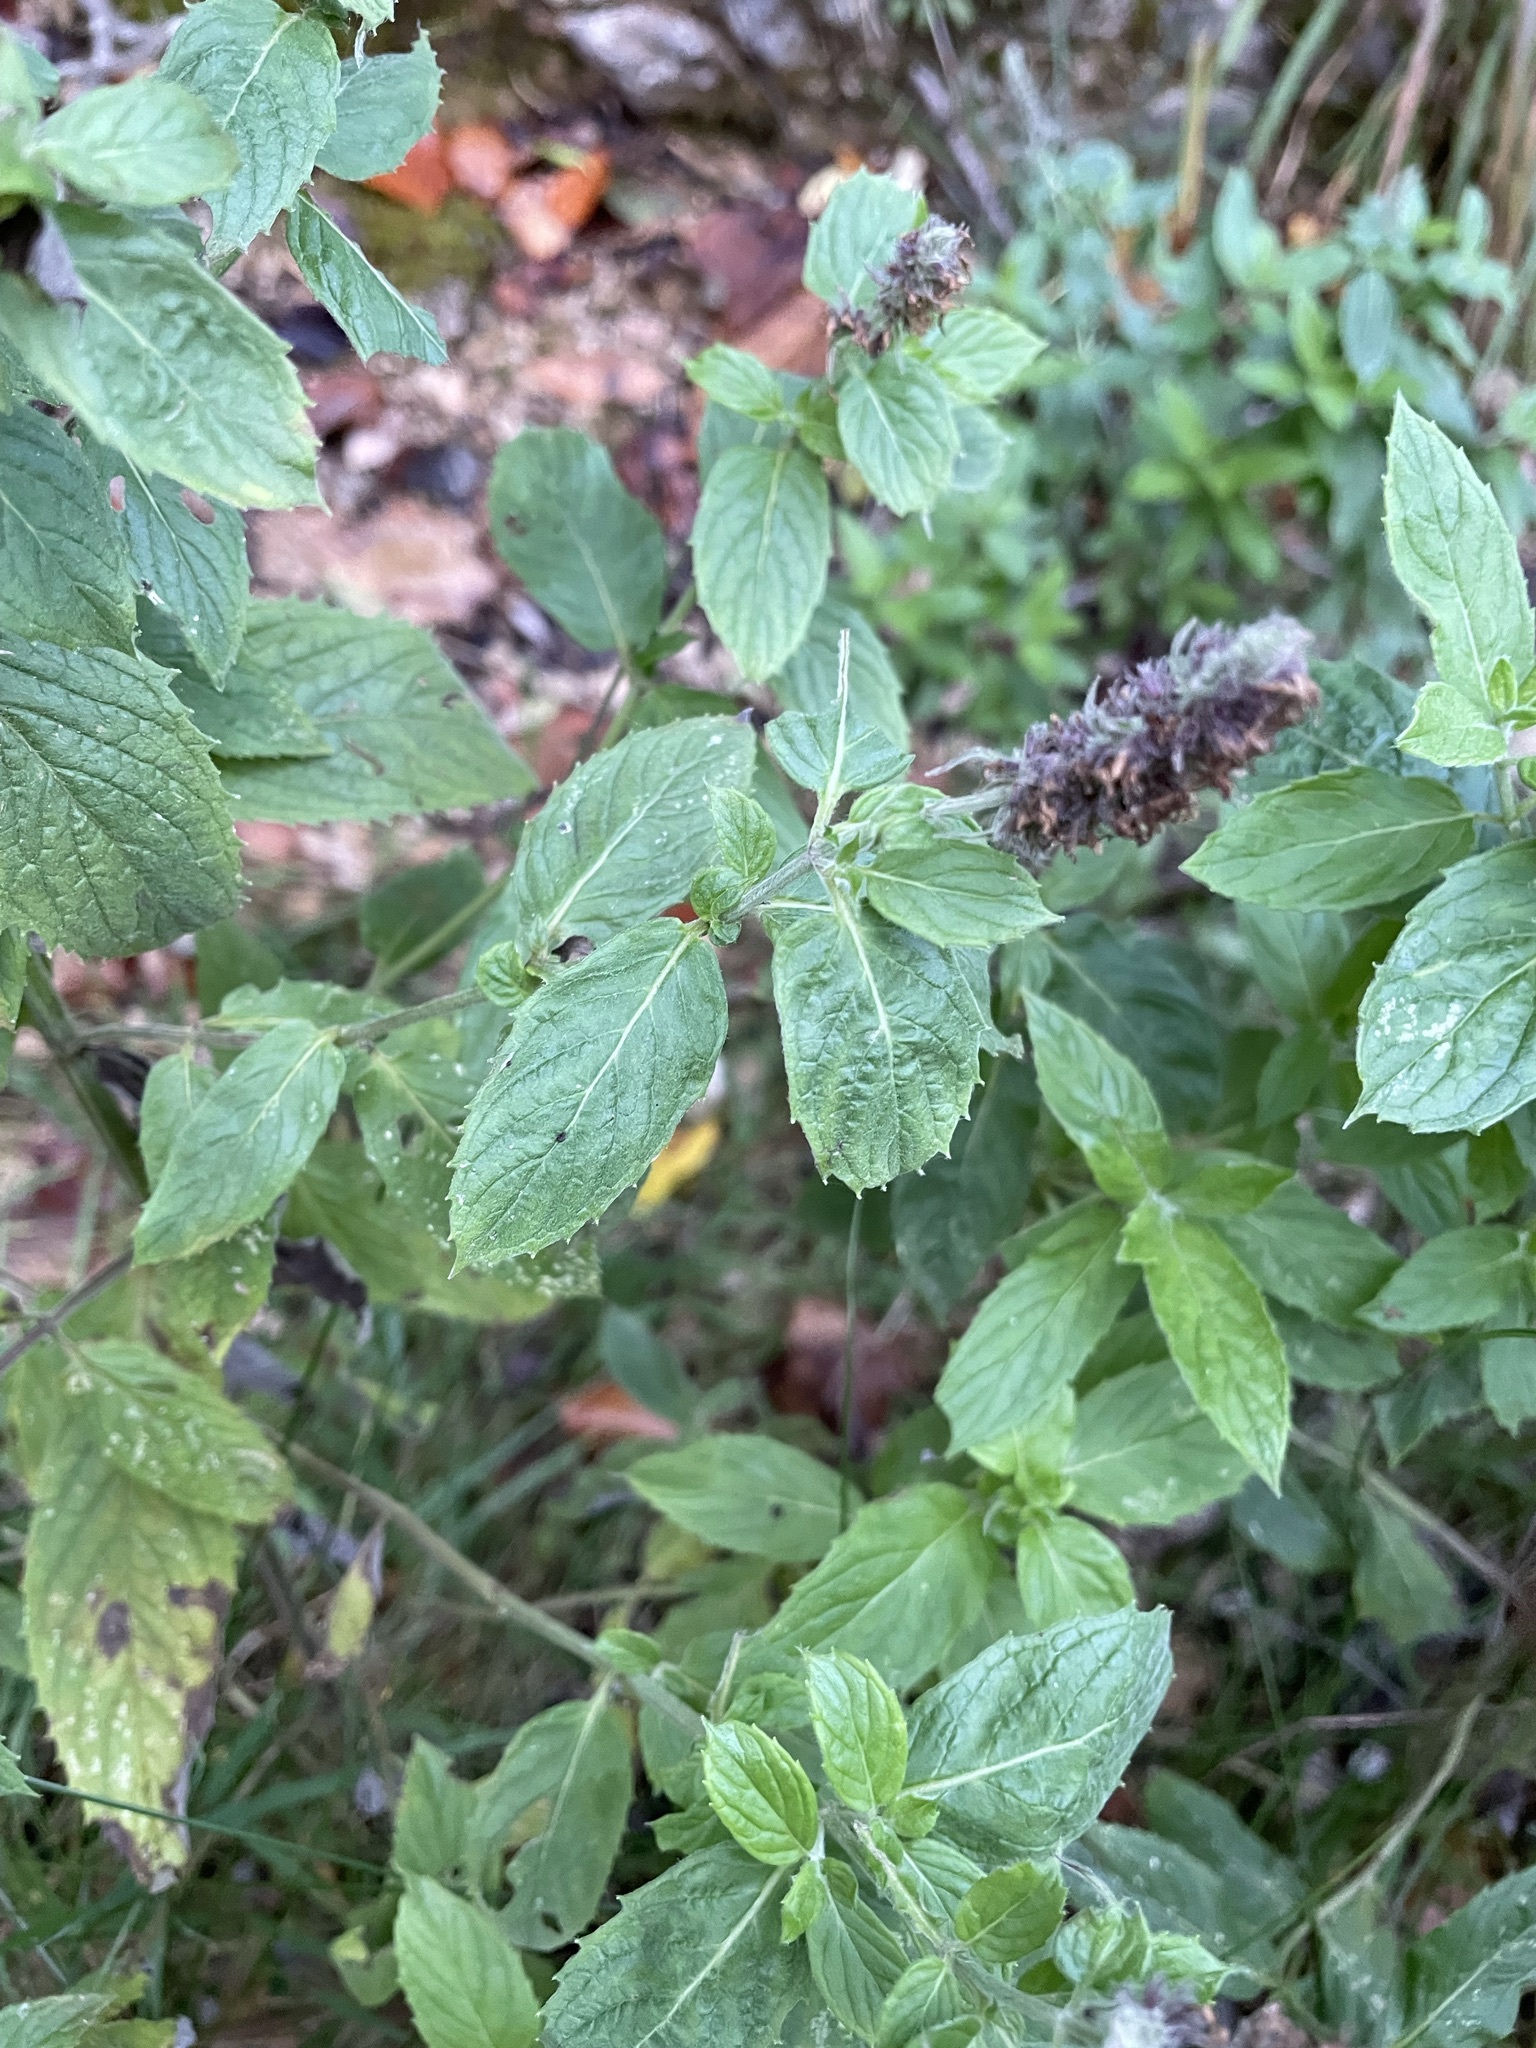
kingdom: Plantae
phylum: Tracheophyta
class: Magnoliopsida
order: Lamiales
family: Lamiaceae
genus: Mentha
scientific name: Mentha longifolia
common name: Horse mint
